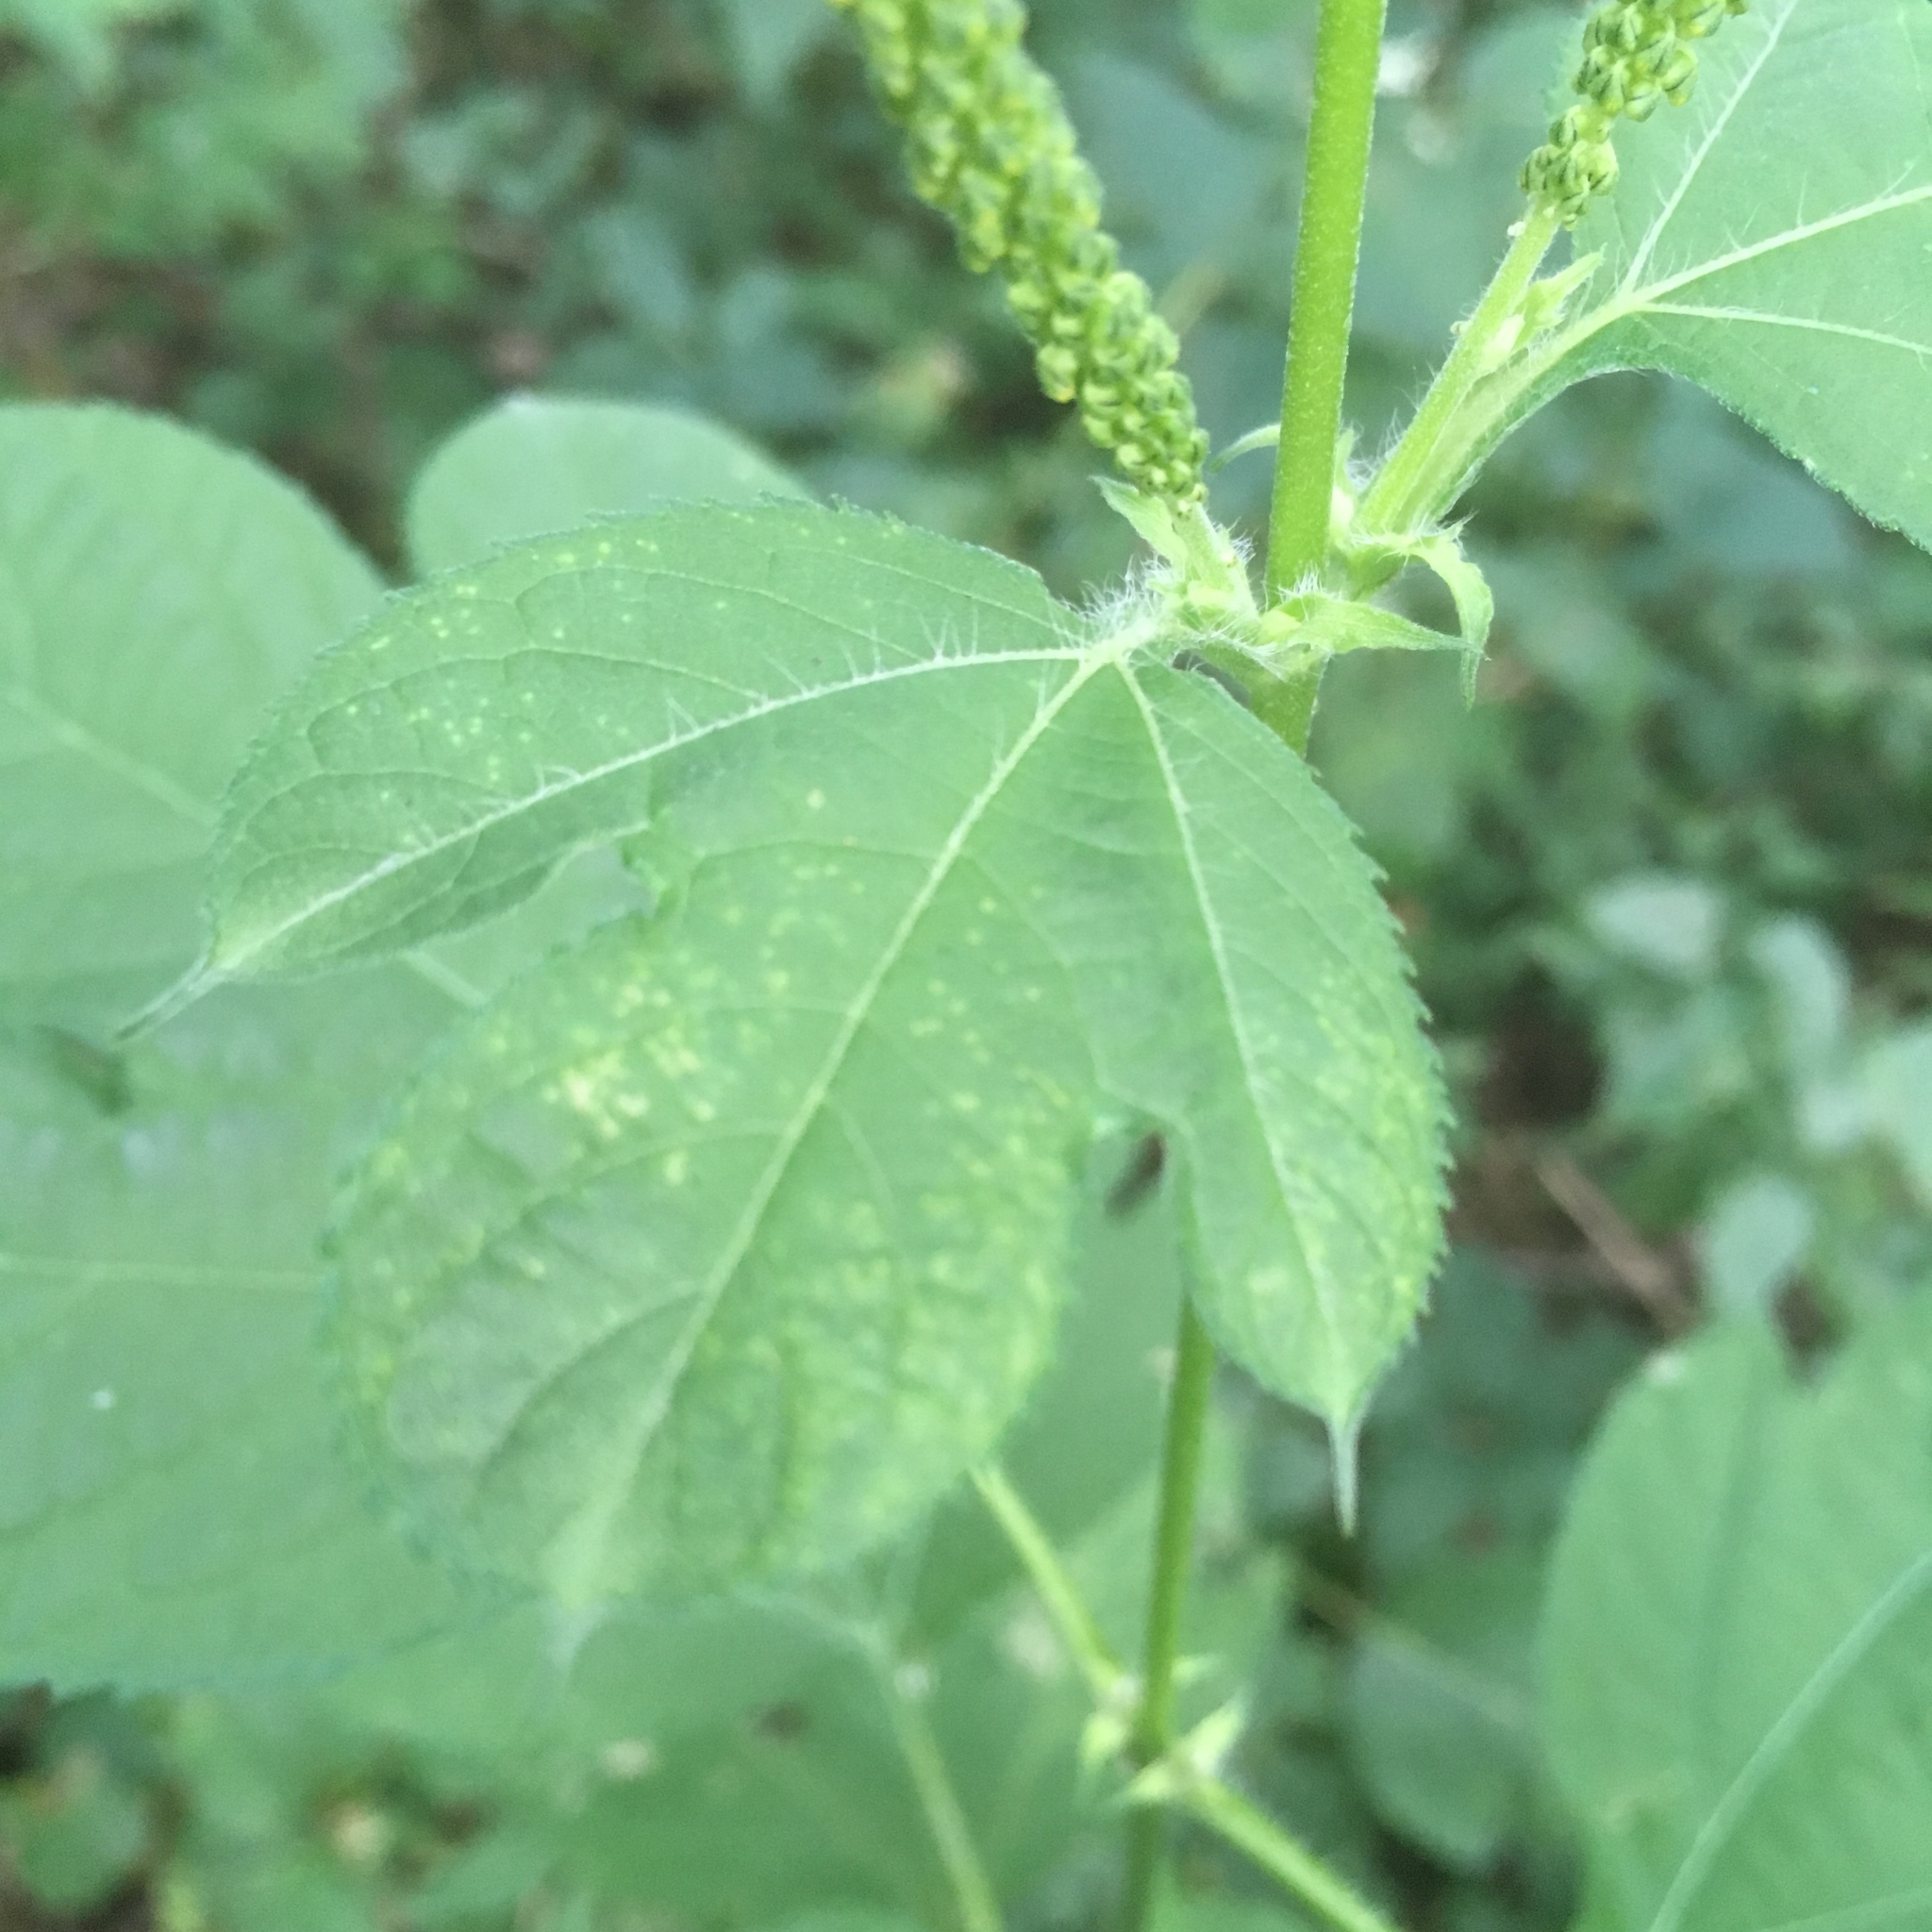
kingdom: Plantae
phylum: Tracheophyta
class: Magnoliopsida
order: Asterales
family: Asteraceae
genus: Ambrosia
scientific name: Ambrosia trifida
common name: Giant ragweed
